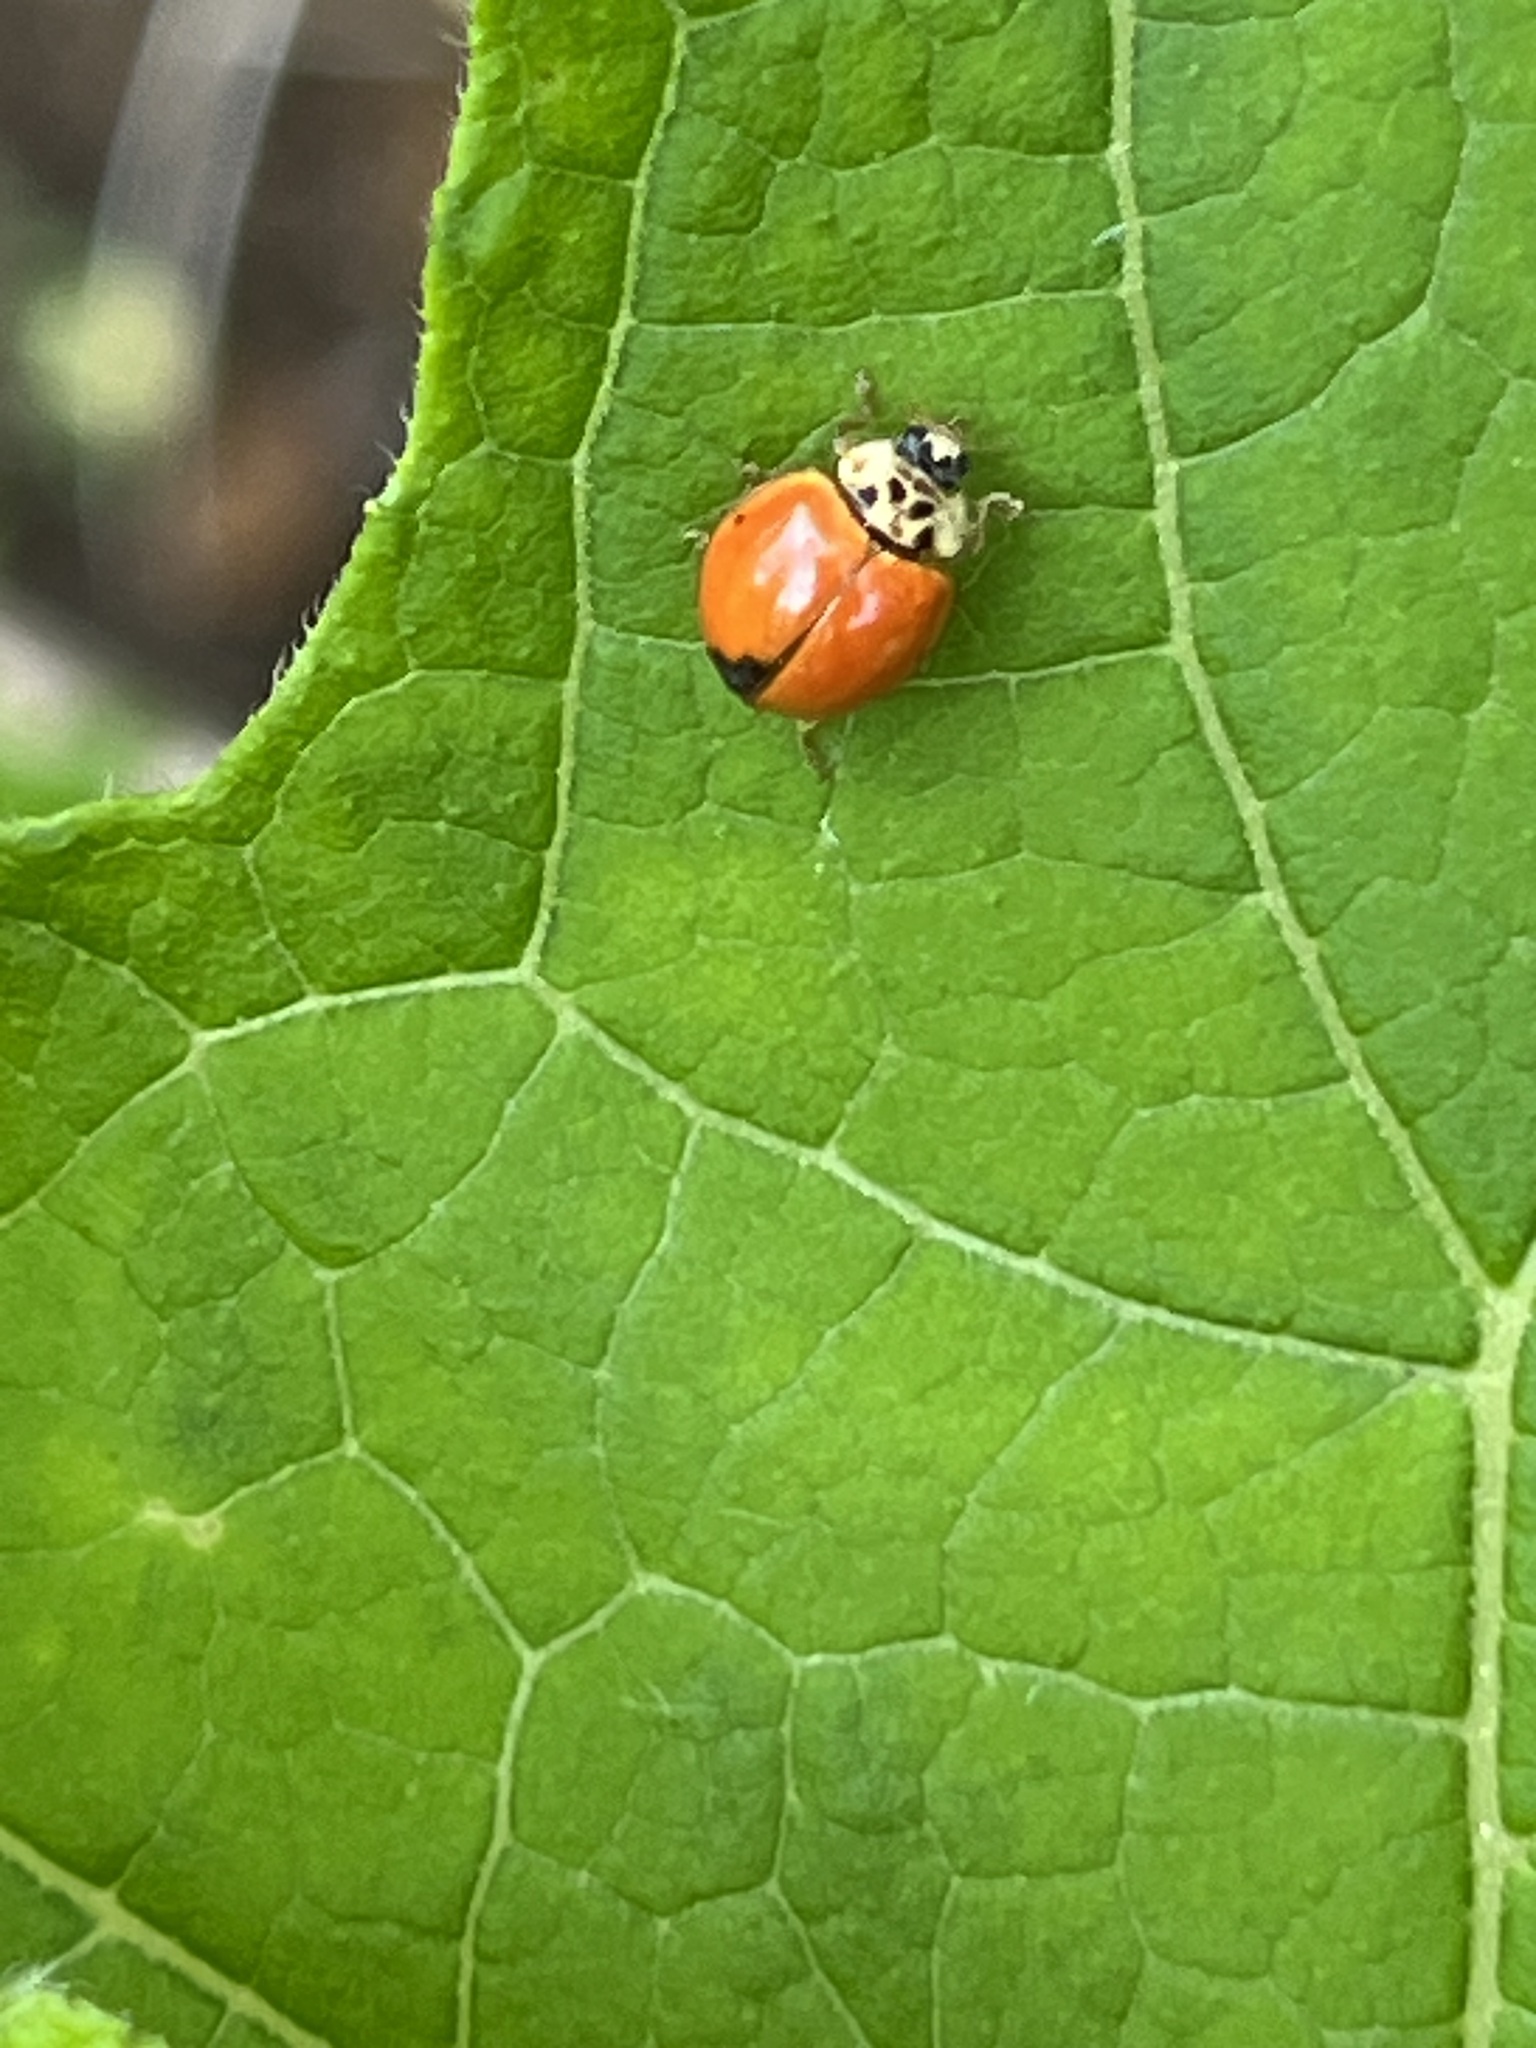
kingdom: Animalia
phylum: Arthropoda
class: Insecta
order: Coleoptera
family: Coccinellidae
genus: Harmonia
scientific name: Harmonia axyridis
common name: Harlequin ladybird
